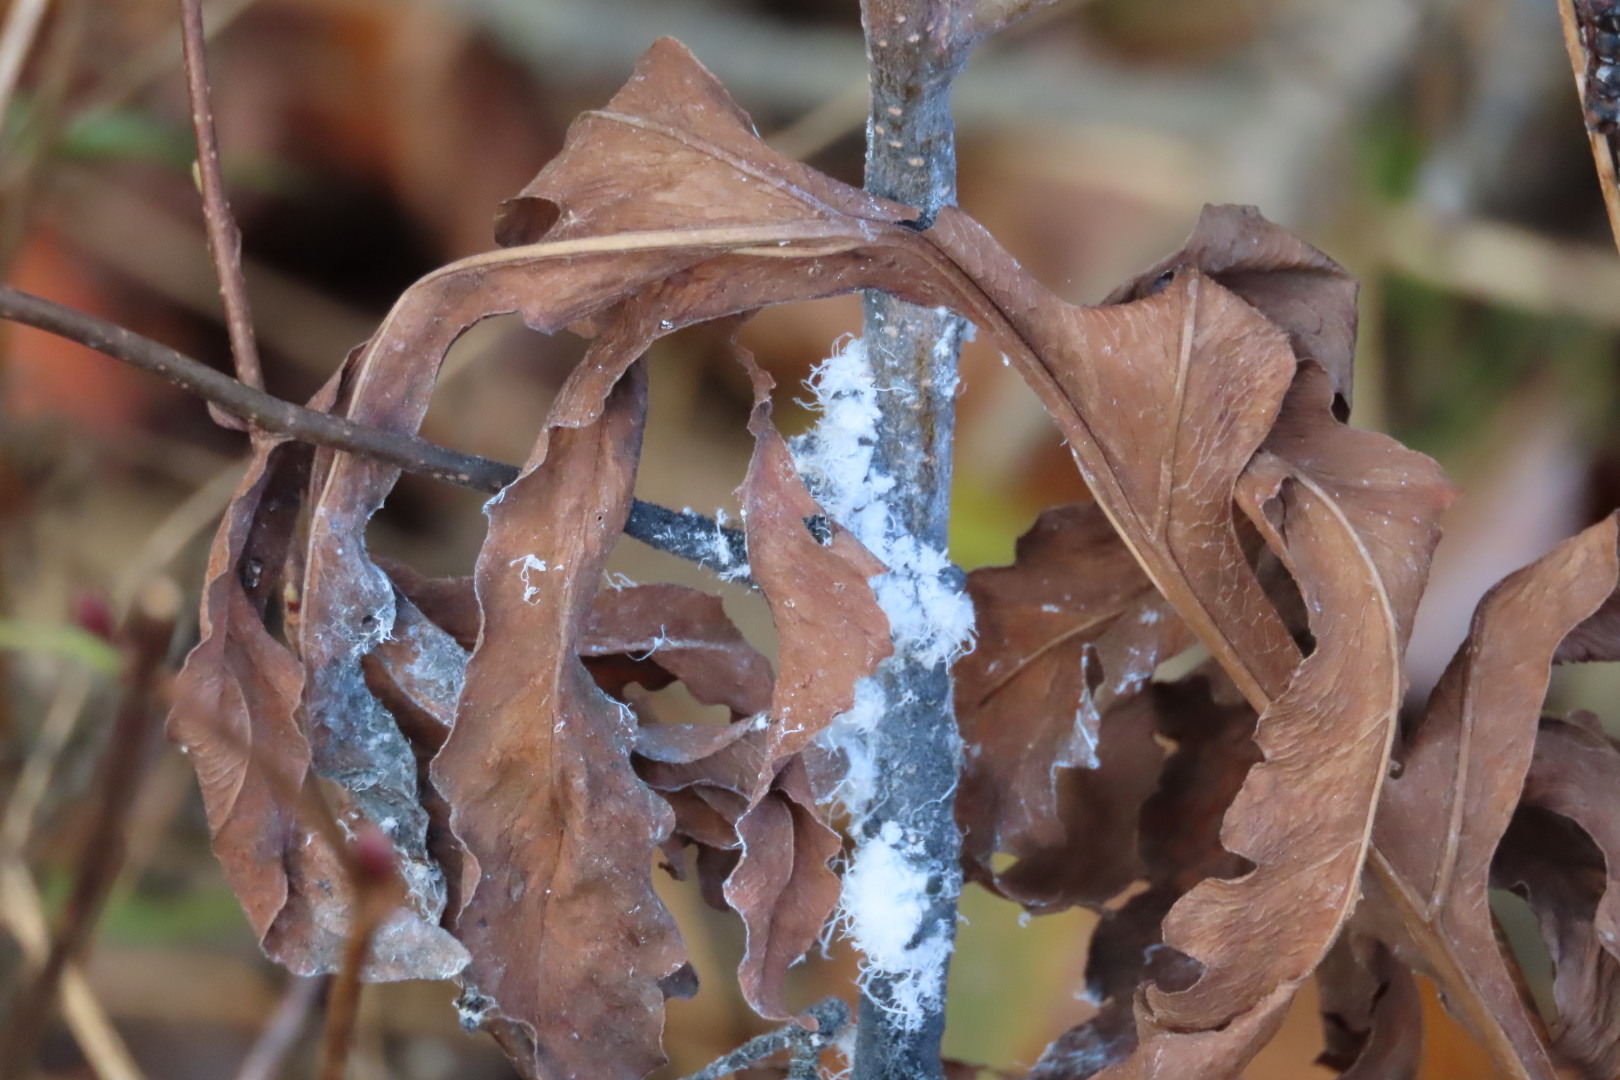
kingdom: Animalia
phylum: Arthropoda
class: Insecta
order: Hemiptera
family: Aphididae
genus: Prociphilus
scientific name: Prociphilus tessellatus
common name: Woolly alder aphid
